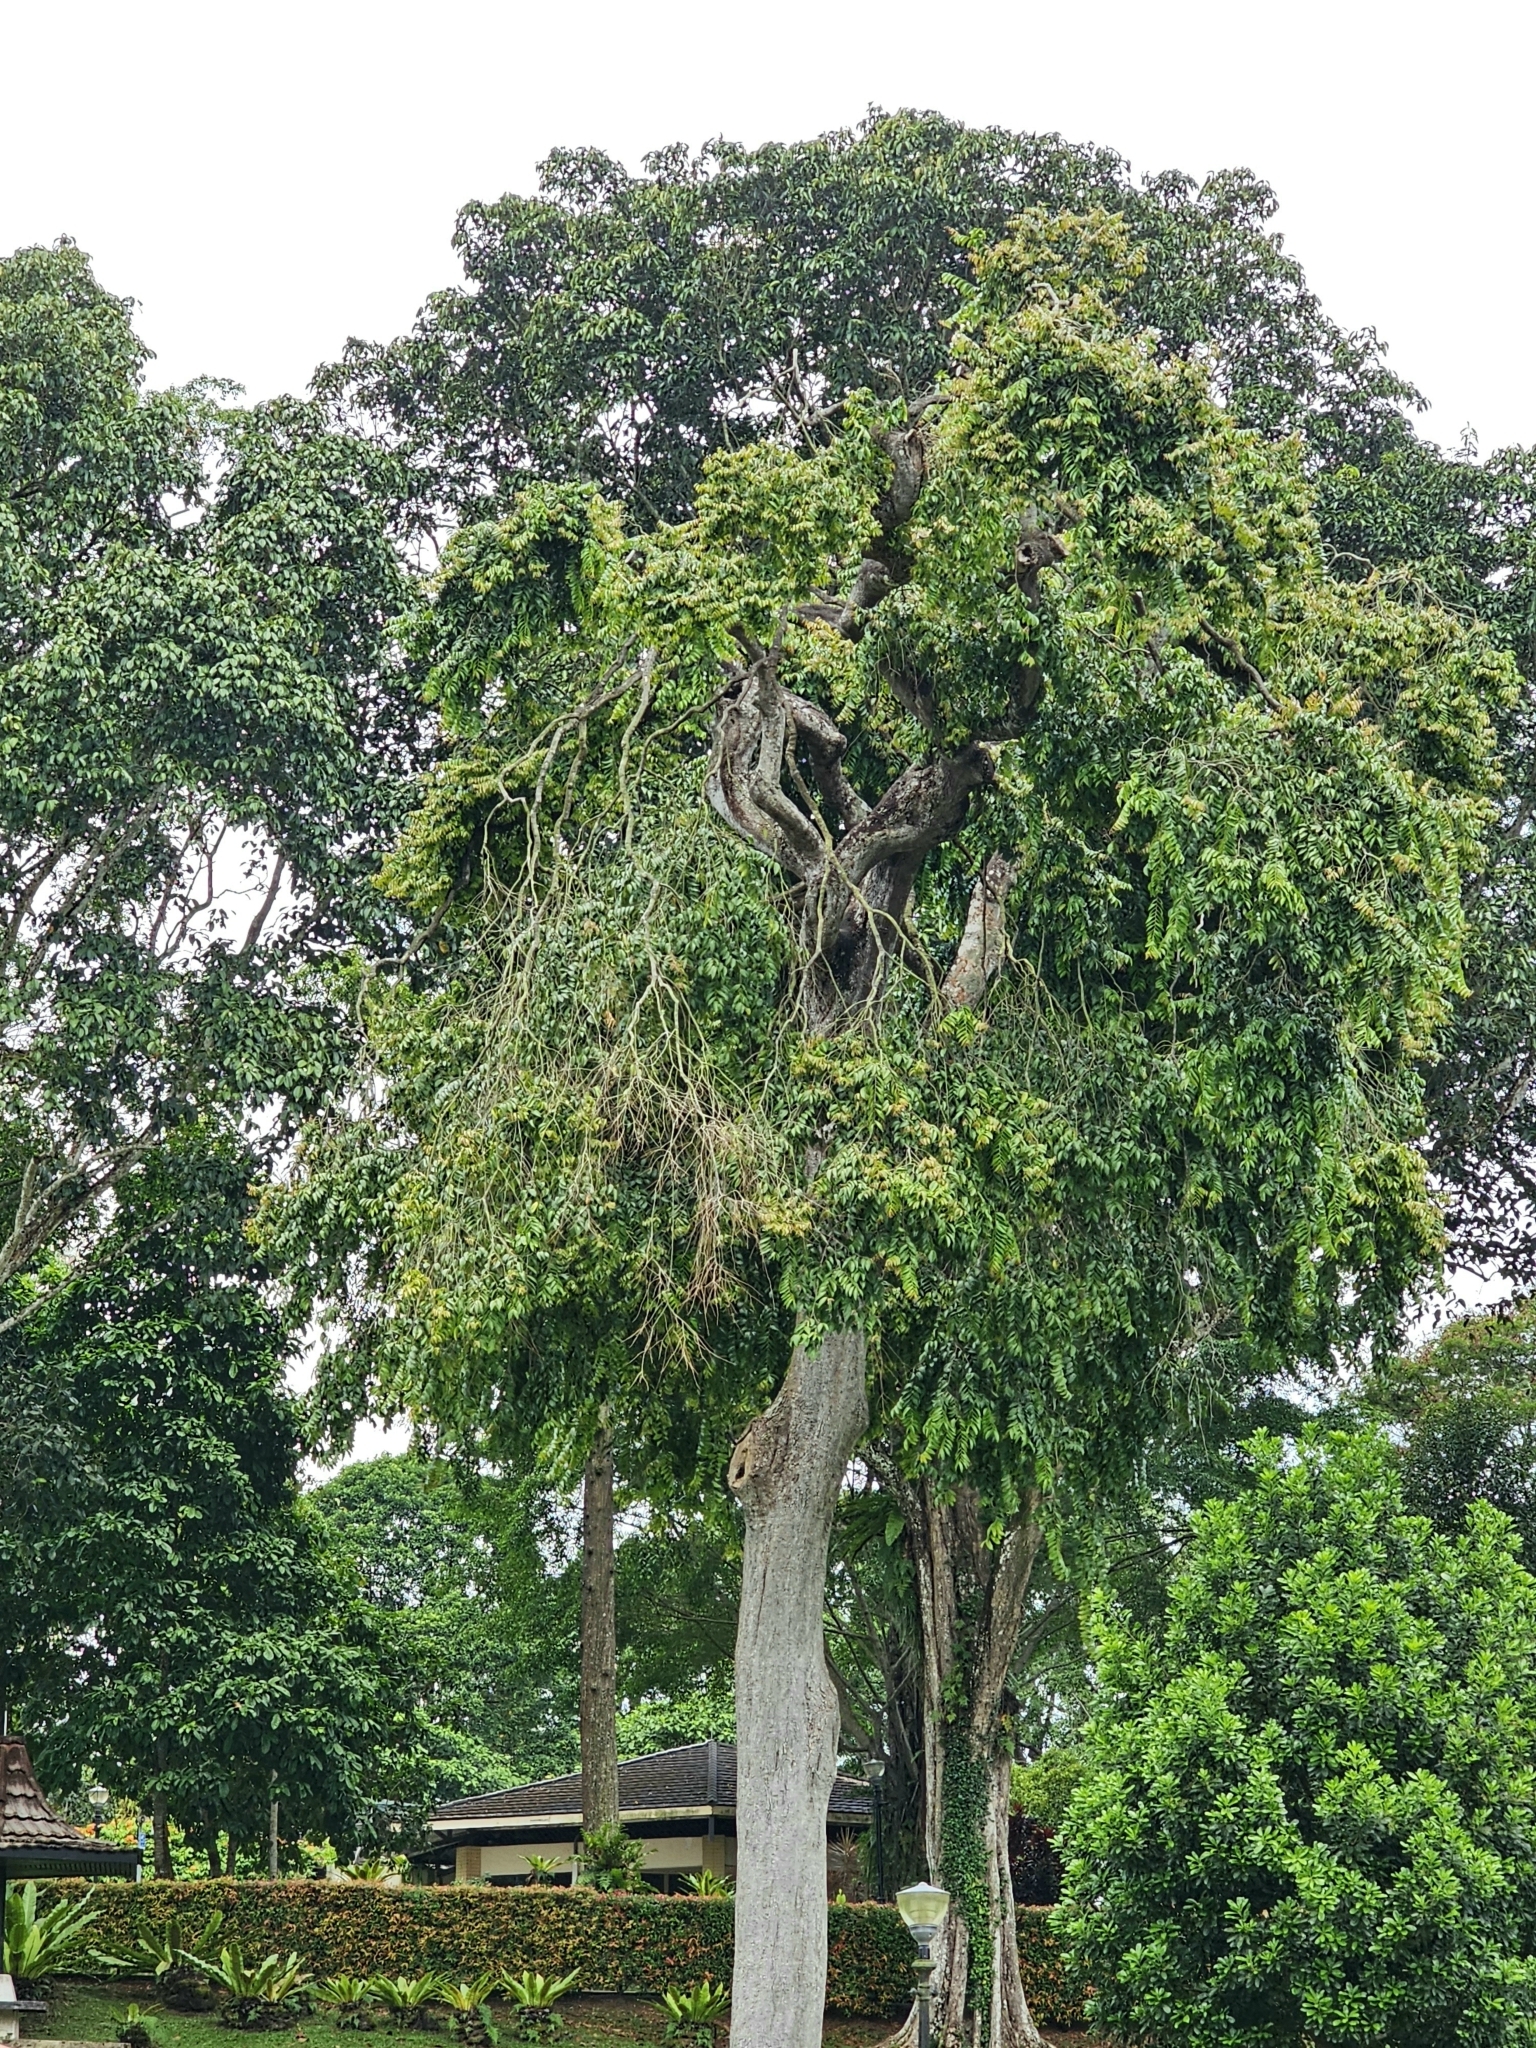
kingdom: Plantae
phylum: Tracheophyta
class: Magnoliopsida
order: Cucurbitales
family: Anisophylleaceae
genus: Anisophyllea
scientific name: Anisophyllea griffithii
